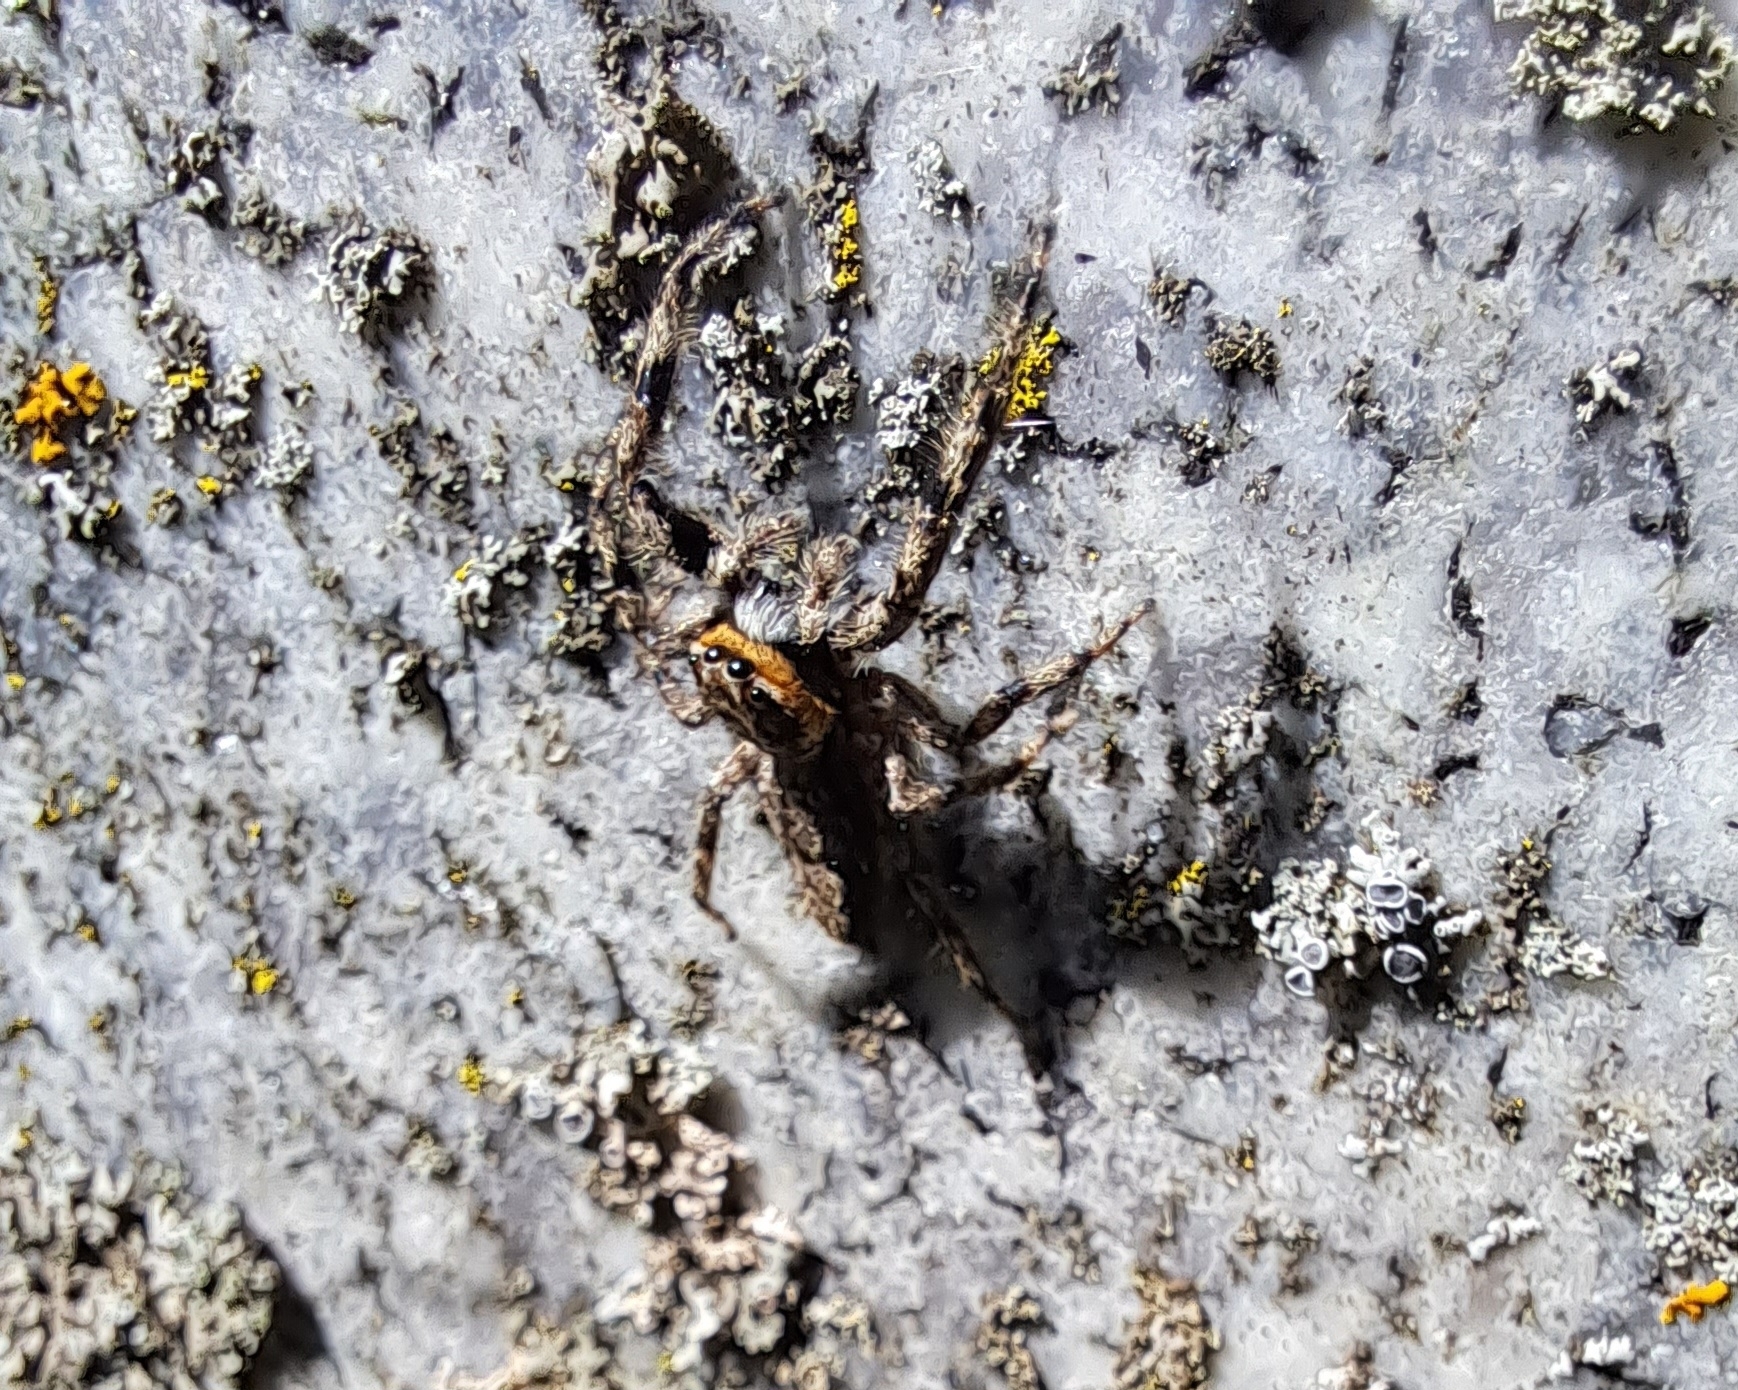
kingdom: Animalia
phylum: Arthropoda
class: Arachnida
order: Araneae
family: Salticidae
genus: Platycryptus
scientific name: Platycryptus undatus
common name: Tan jumping spider
